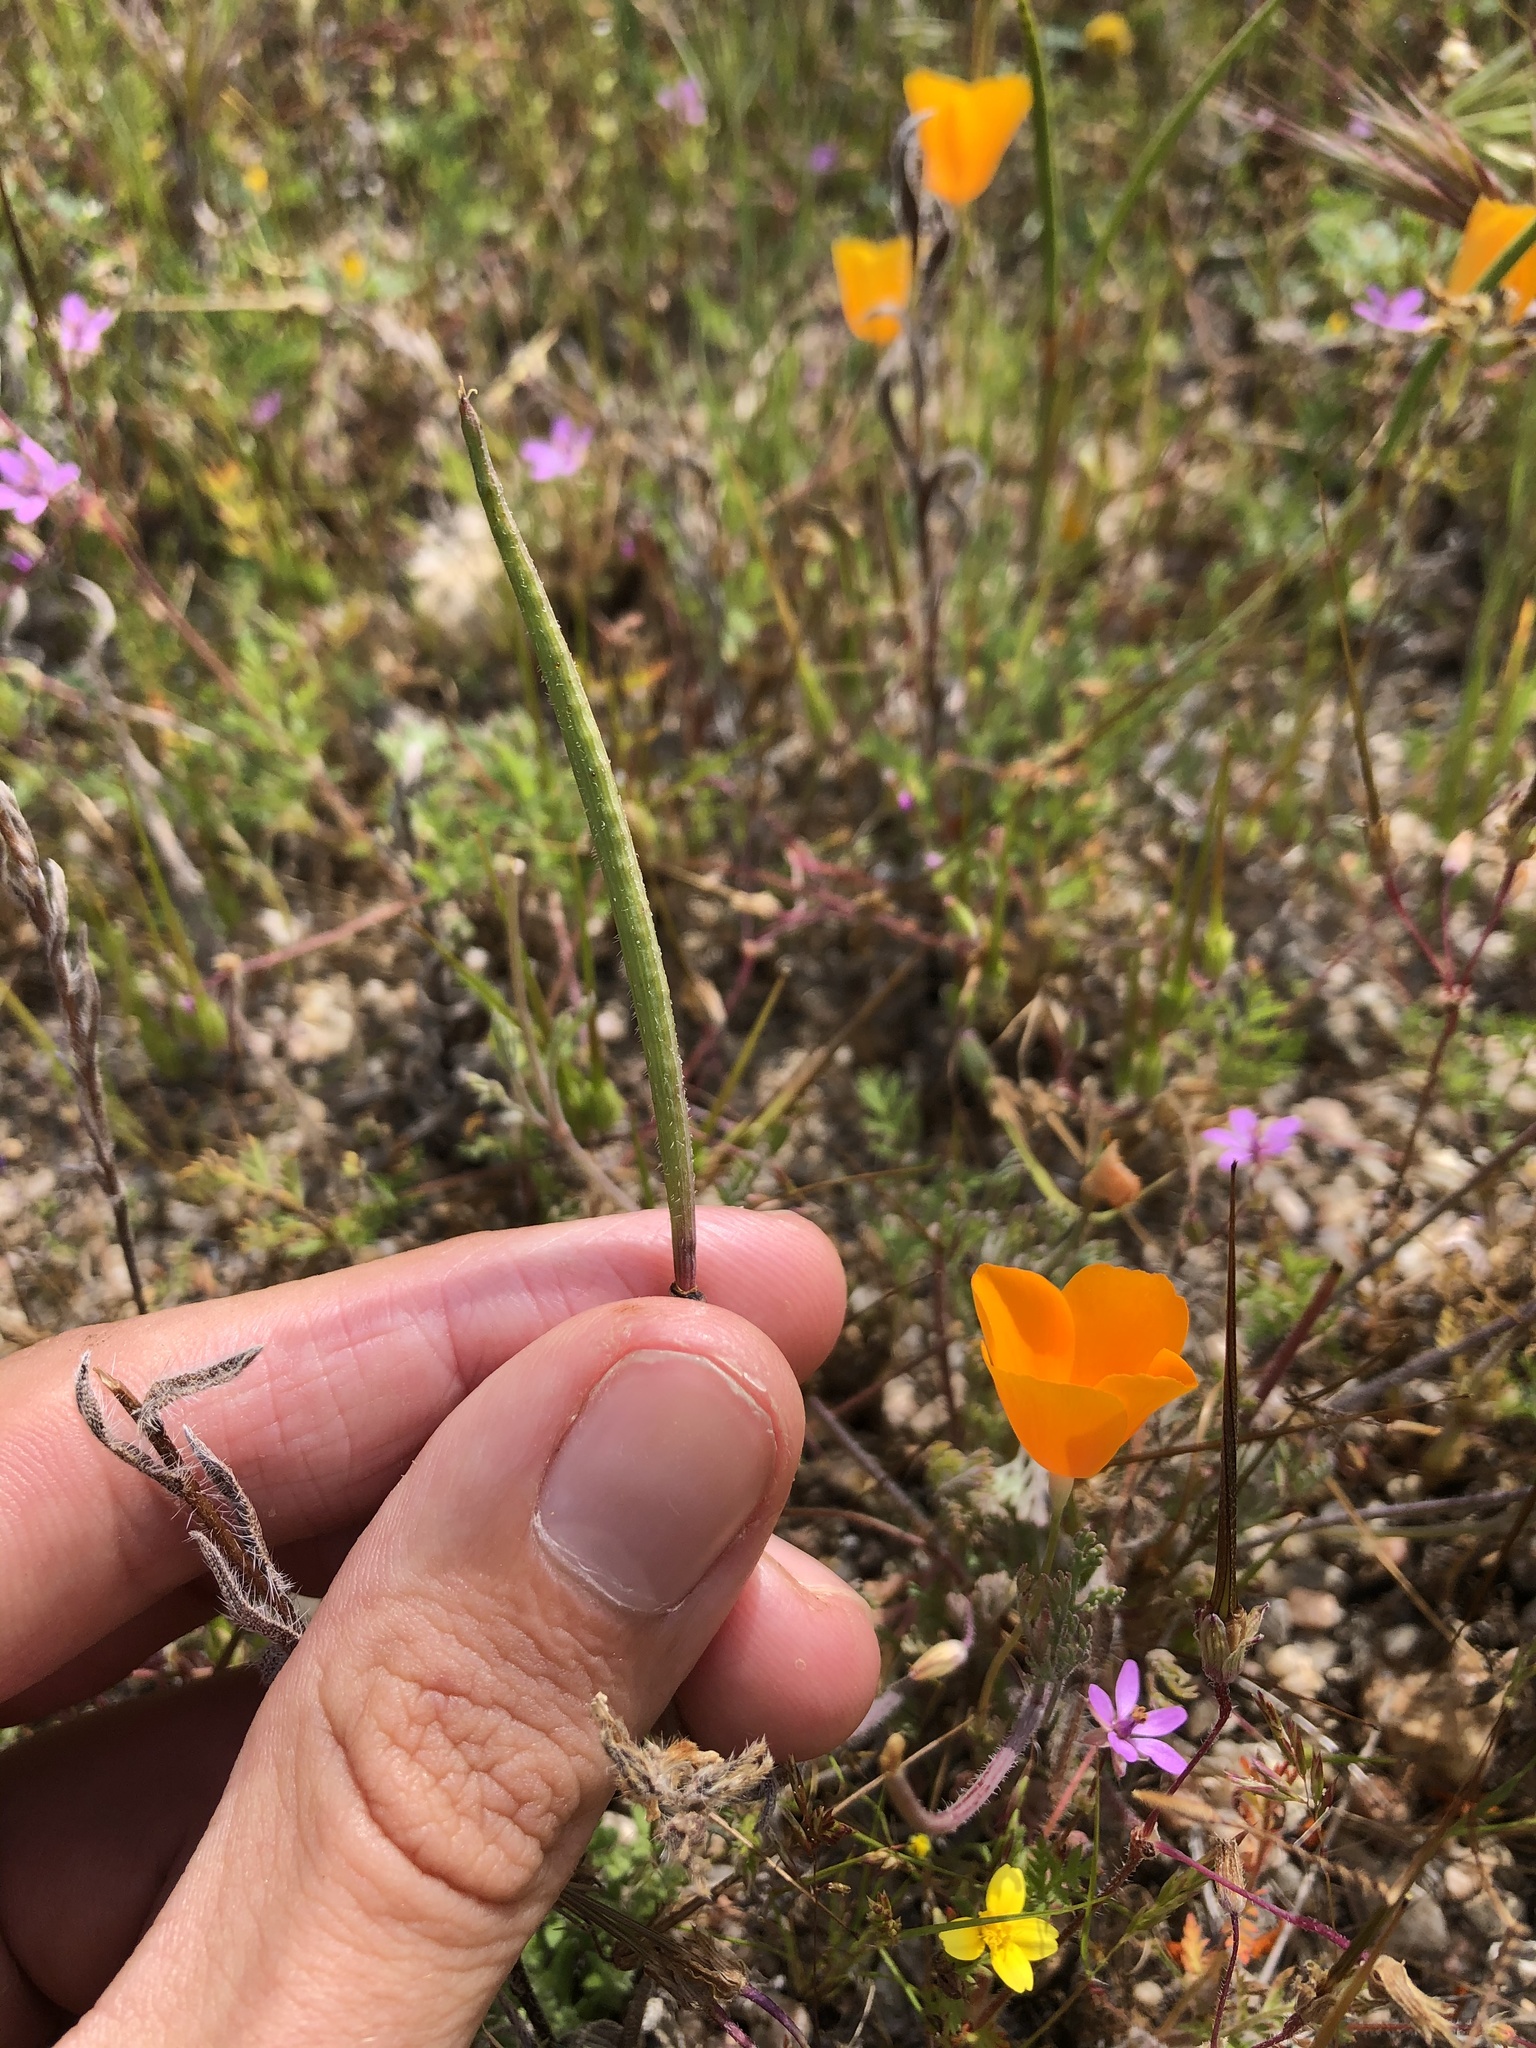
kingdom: Plantae
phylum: Tracheophyta
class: Magnoliopsida
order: Ranunculales
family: Papaveraceae
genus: Eschscholzia
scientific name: Eschscholzia lemmonii
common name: Lemmon's poppy
